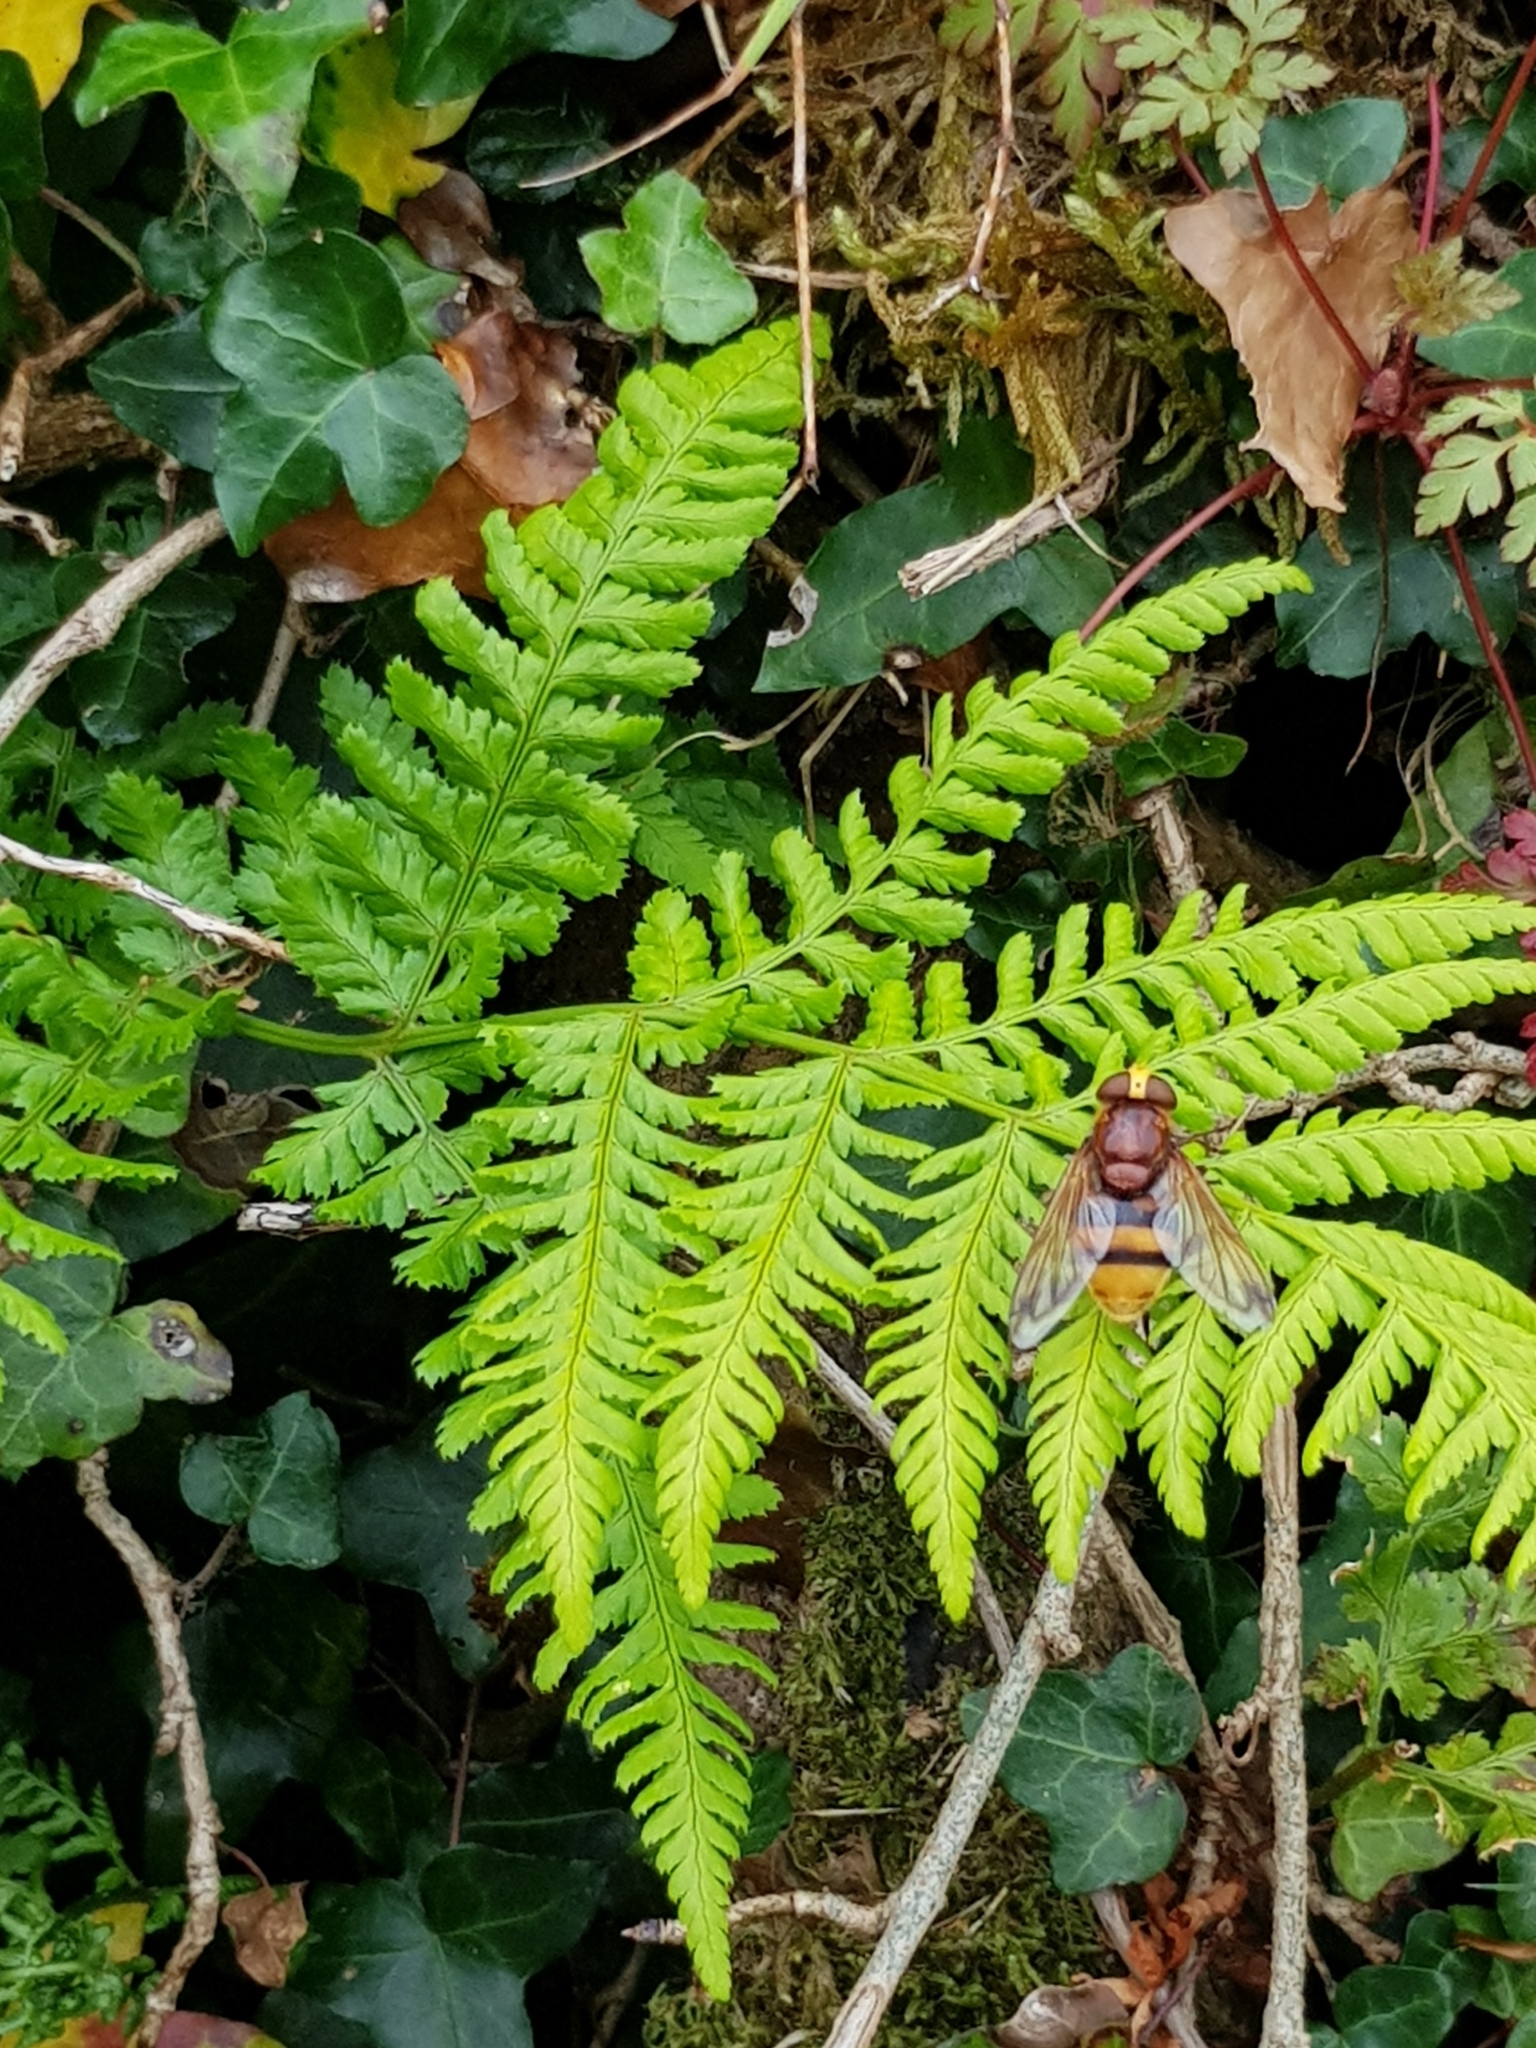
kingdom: Animalia
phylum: Arthropoda
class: Insecta
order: Diptera
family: Syrphidae
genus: Volucella
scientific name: Volucella zonaria
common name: Hornet hoverfly
